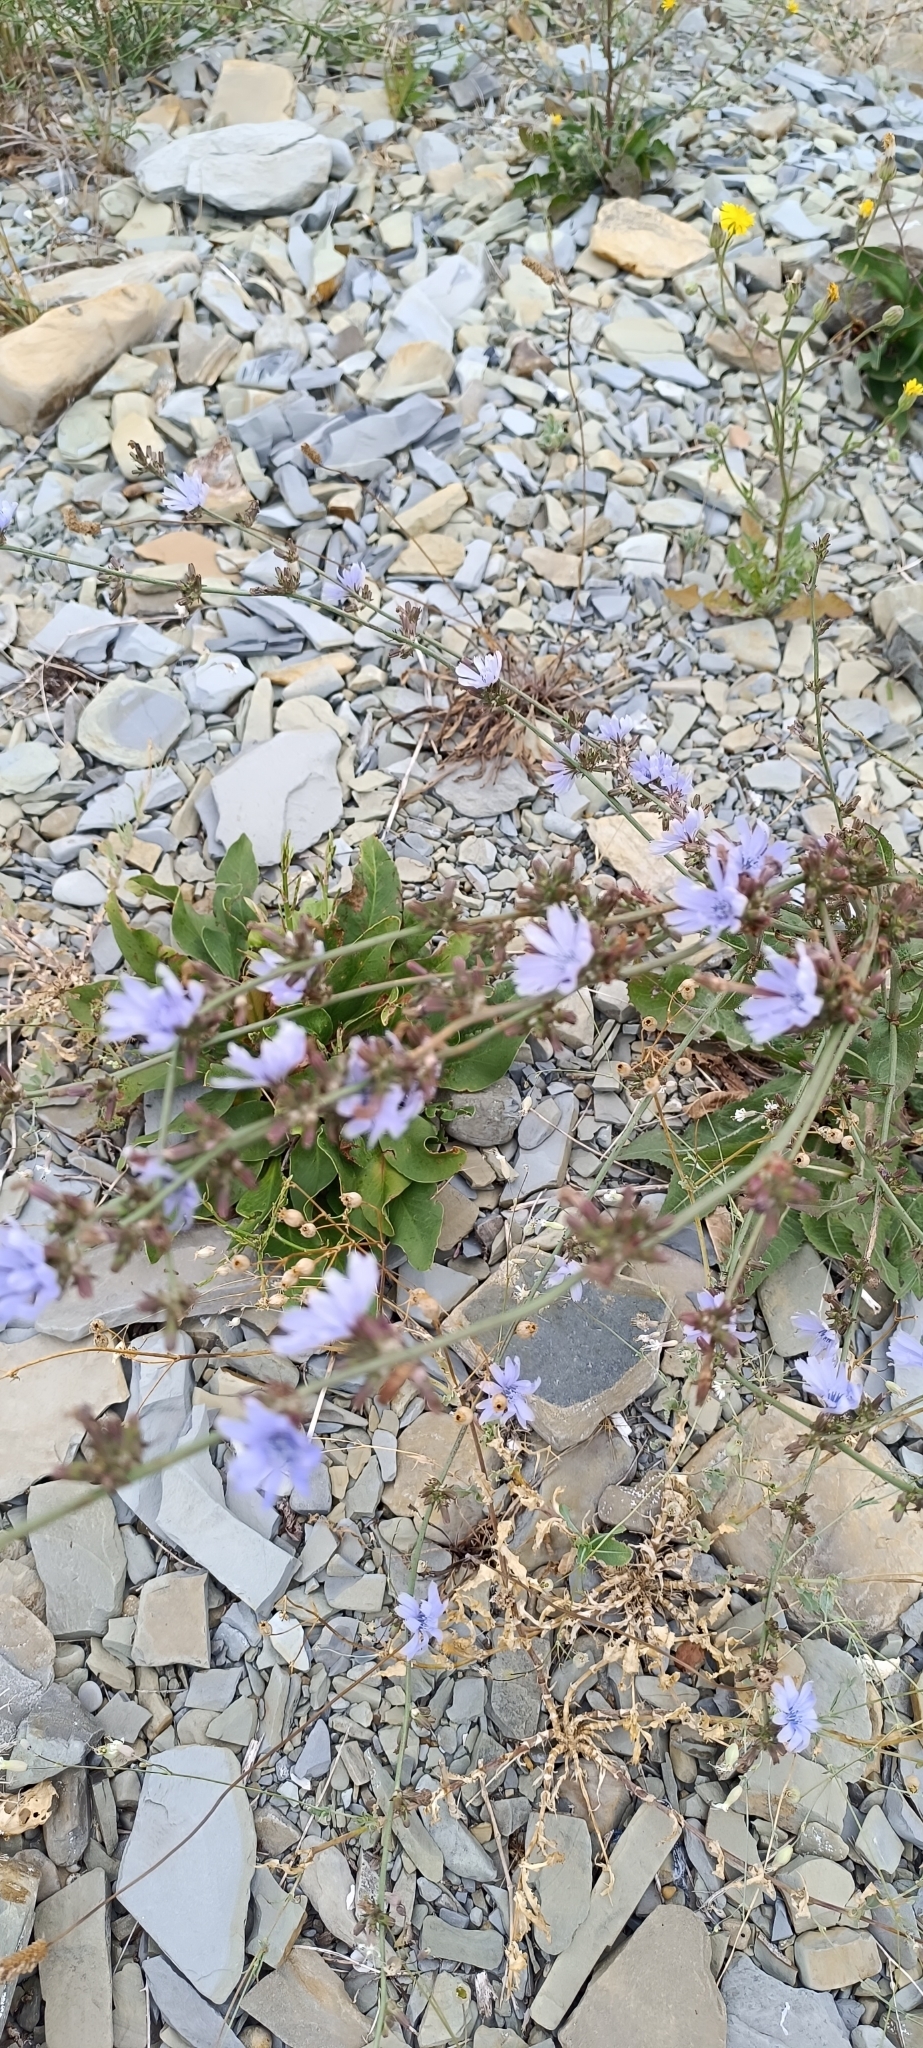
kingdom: Plantae
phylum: Tracheophyta
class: Magnoliopsida
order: Asterales
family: Asteraceae
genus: Cichorium
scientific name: Cichorium intybus
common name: Chicory
